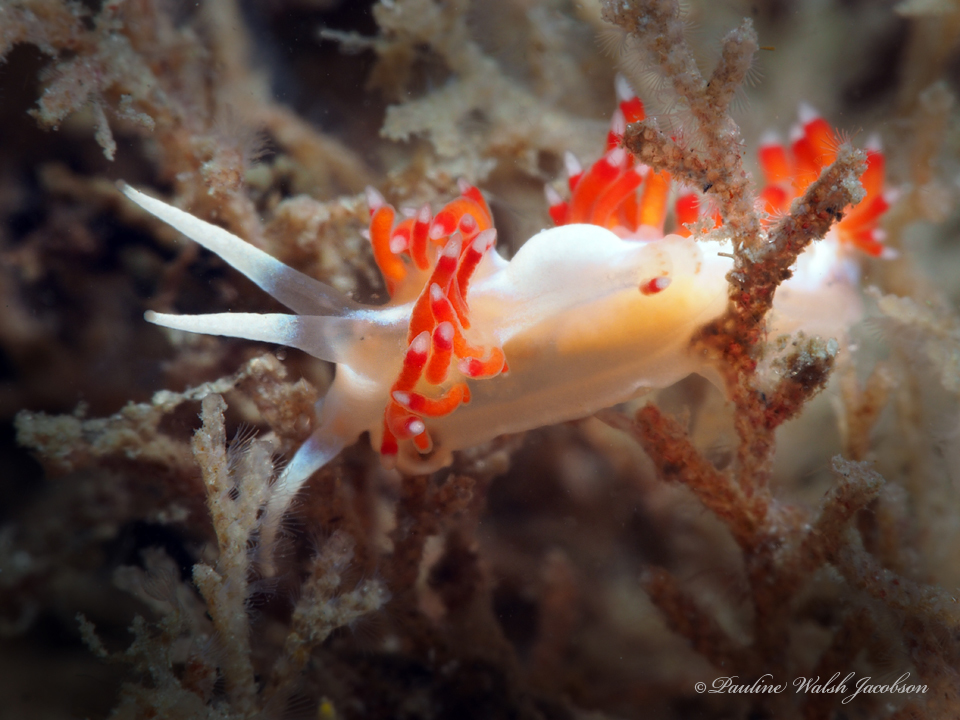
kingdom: Animalia
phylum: Mollusca
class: Gastropoda
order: Nudibranchia
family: Flabellinidae
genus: Flabellina
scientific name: Flabellina dushia
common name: Dushia flabellina
